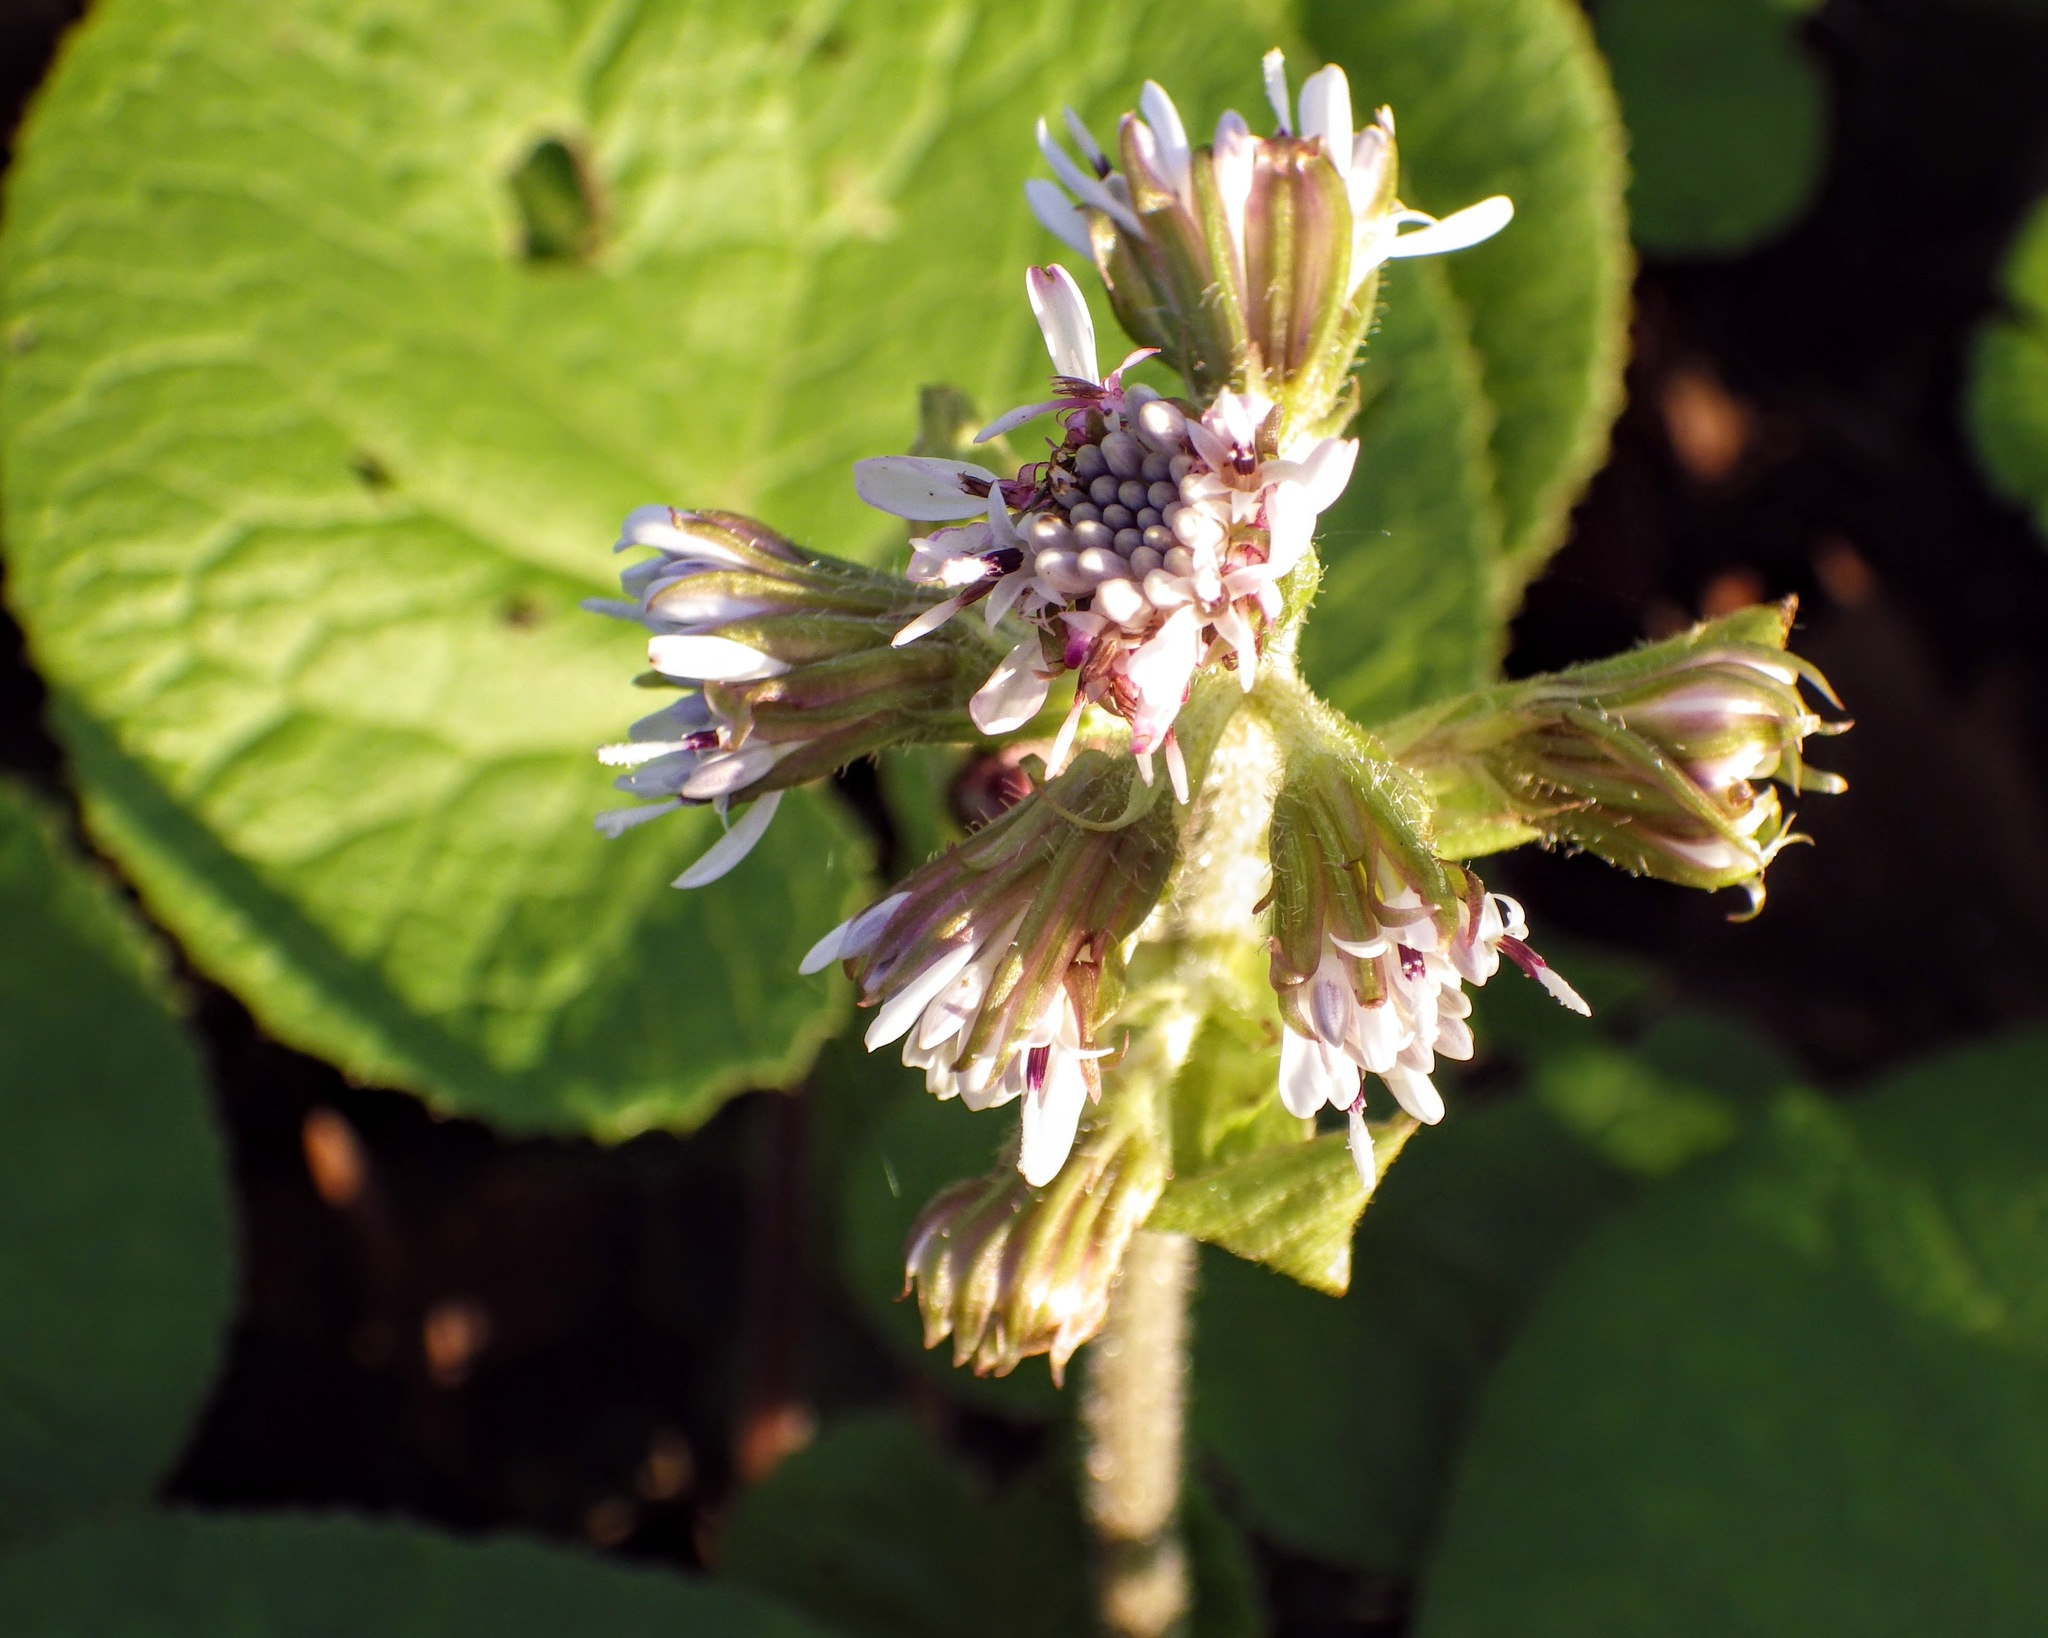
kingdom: Plantae
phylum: Tracheophyta
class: Magnoliopsida
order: Asterales
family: Asteraceae
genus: Petasites
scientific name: Petasites pyrenaicus
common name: Winter heliotrope
